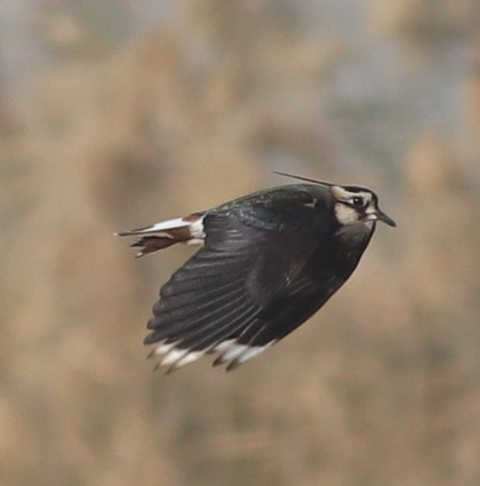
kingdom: Animalia
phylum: Chordata
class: Aves
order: Charadriiformes
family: Charadriidae
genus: Vanellus
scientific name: Vanellus vanellus
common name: Northern lapwing
